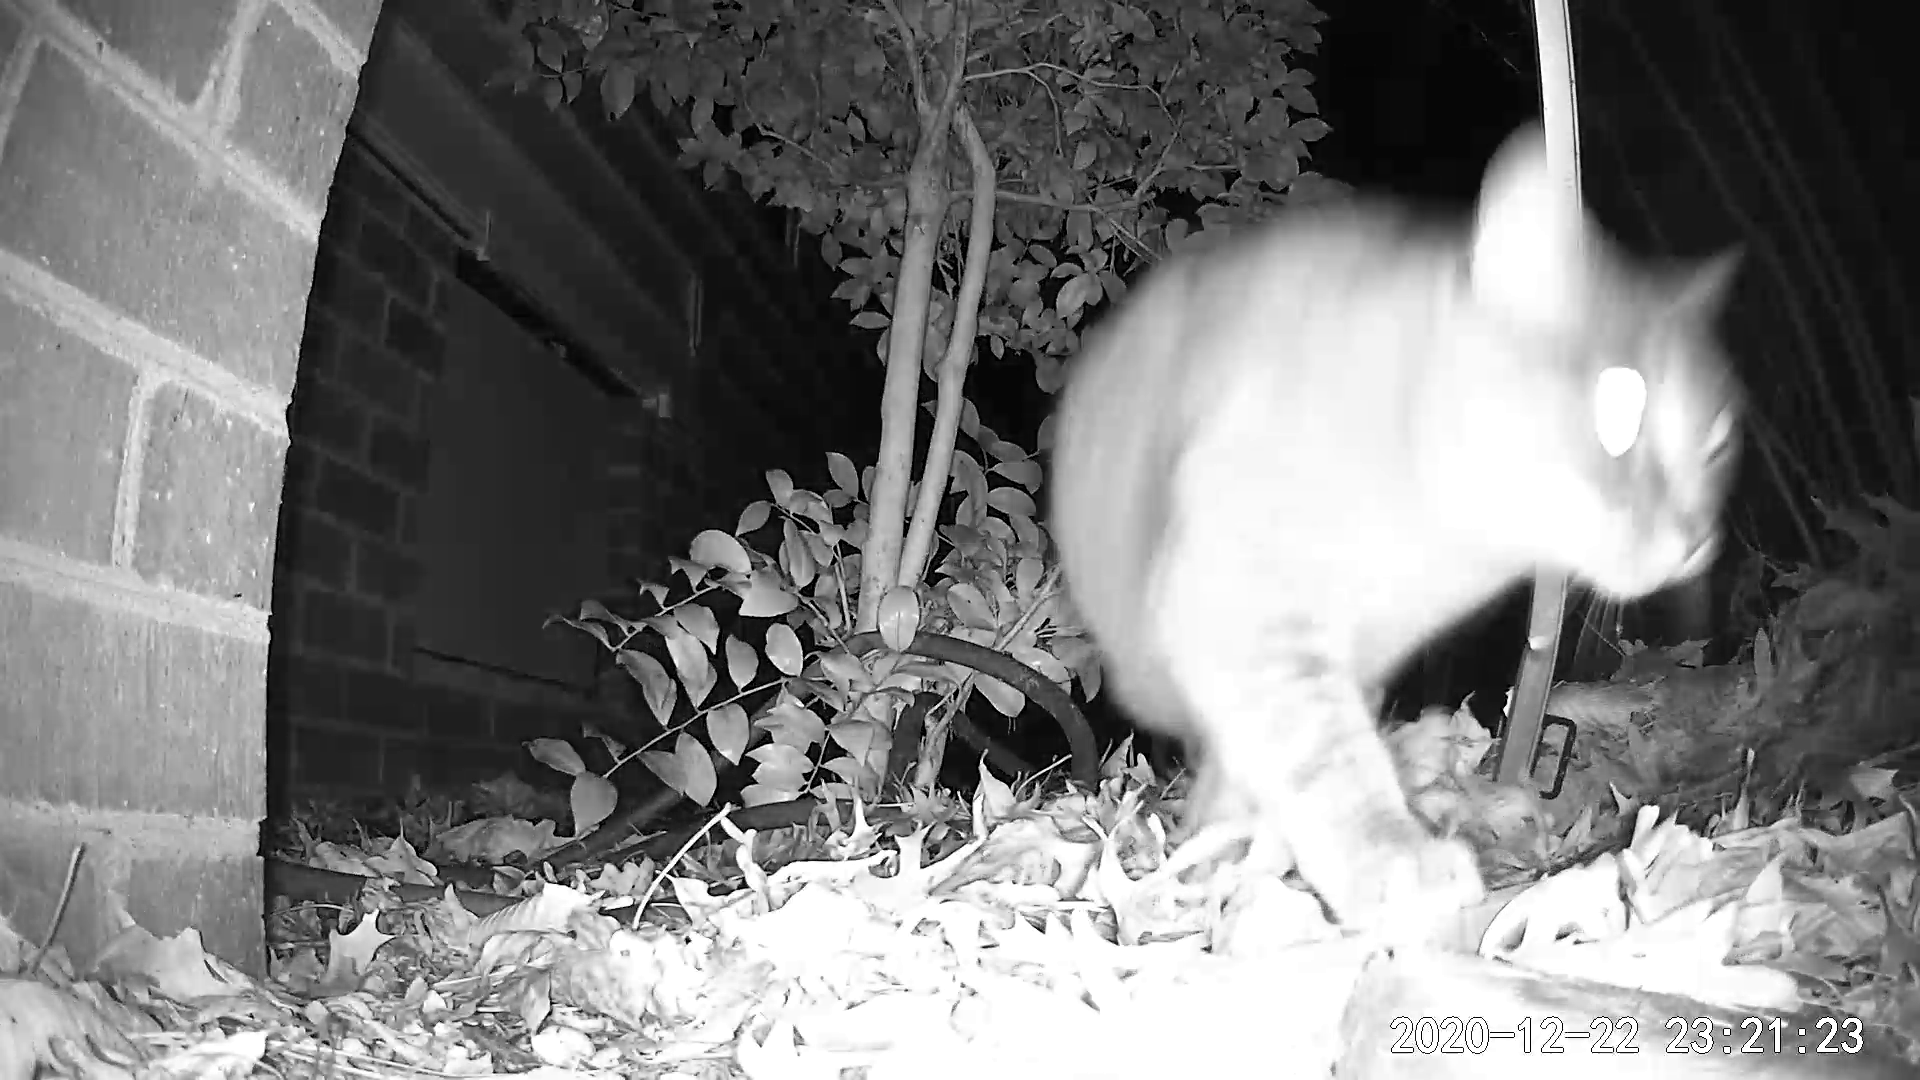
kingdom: Animalia
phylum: Chordata
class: Mammalia
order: Carnivora
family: Felidae
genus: Felis
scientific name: Felis catus
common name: Domestic cat
